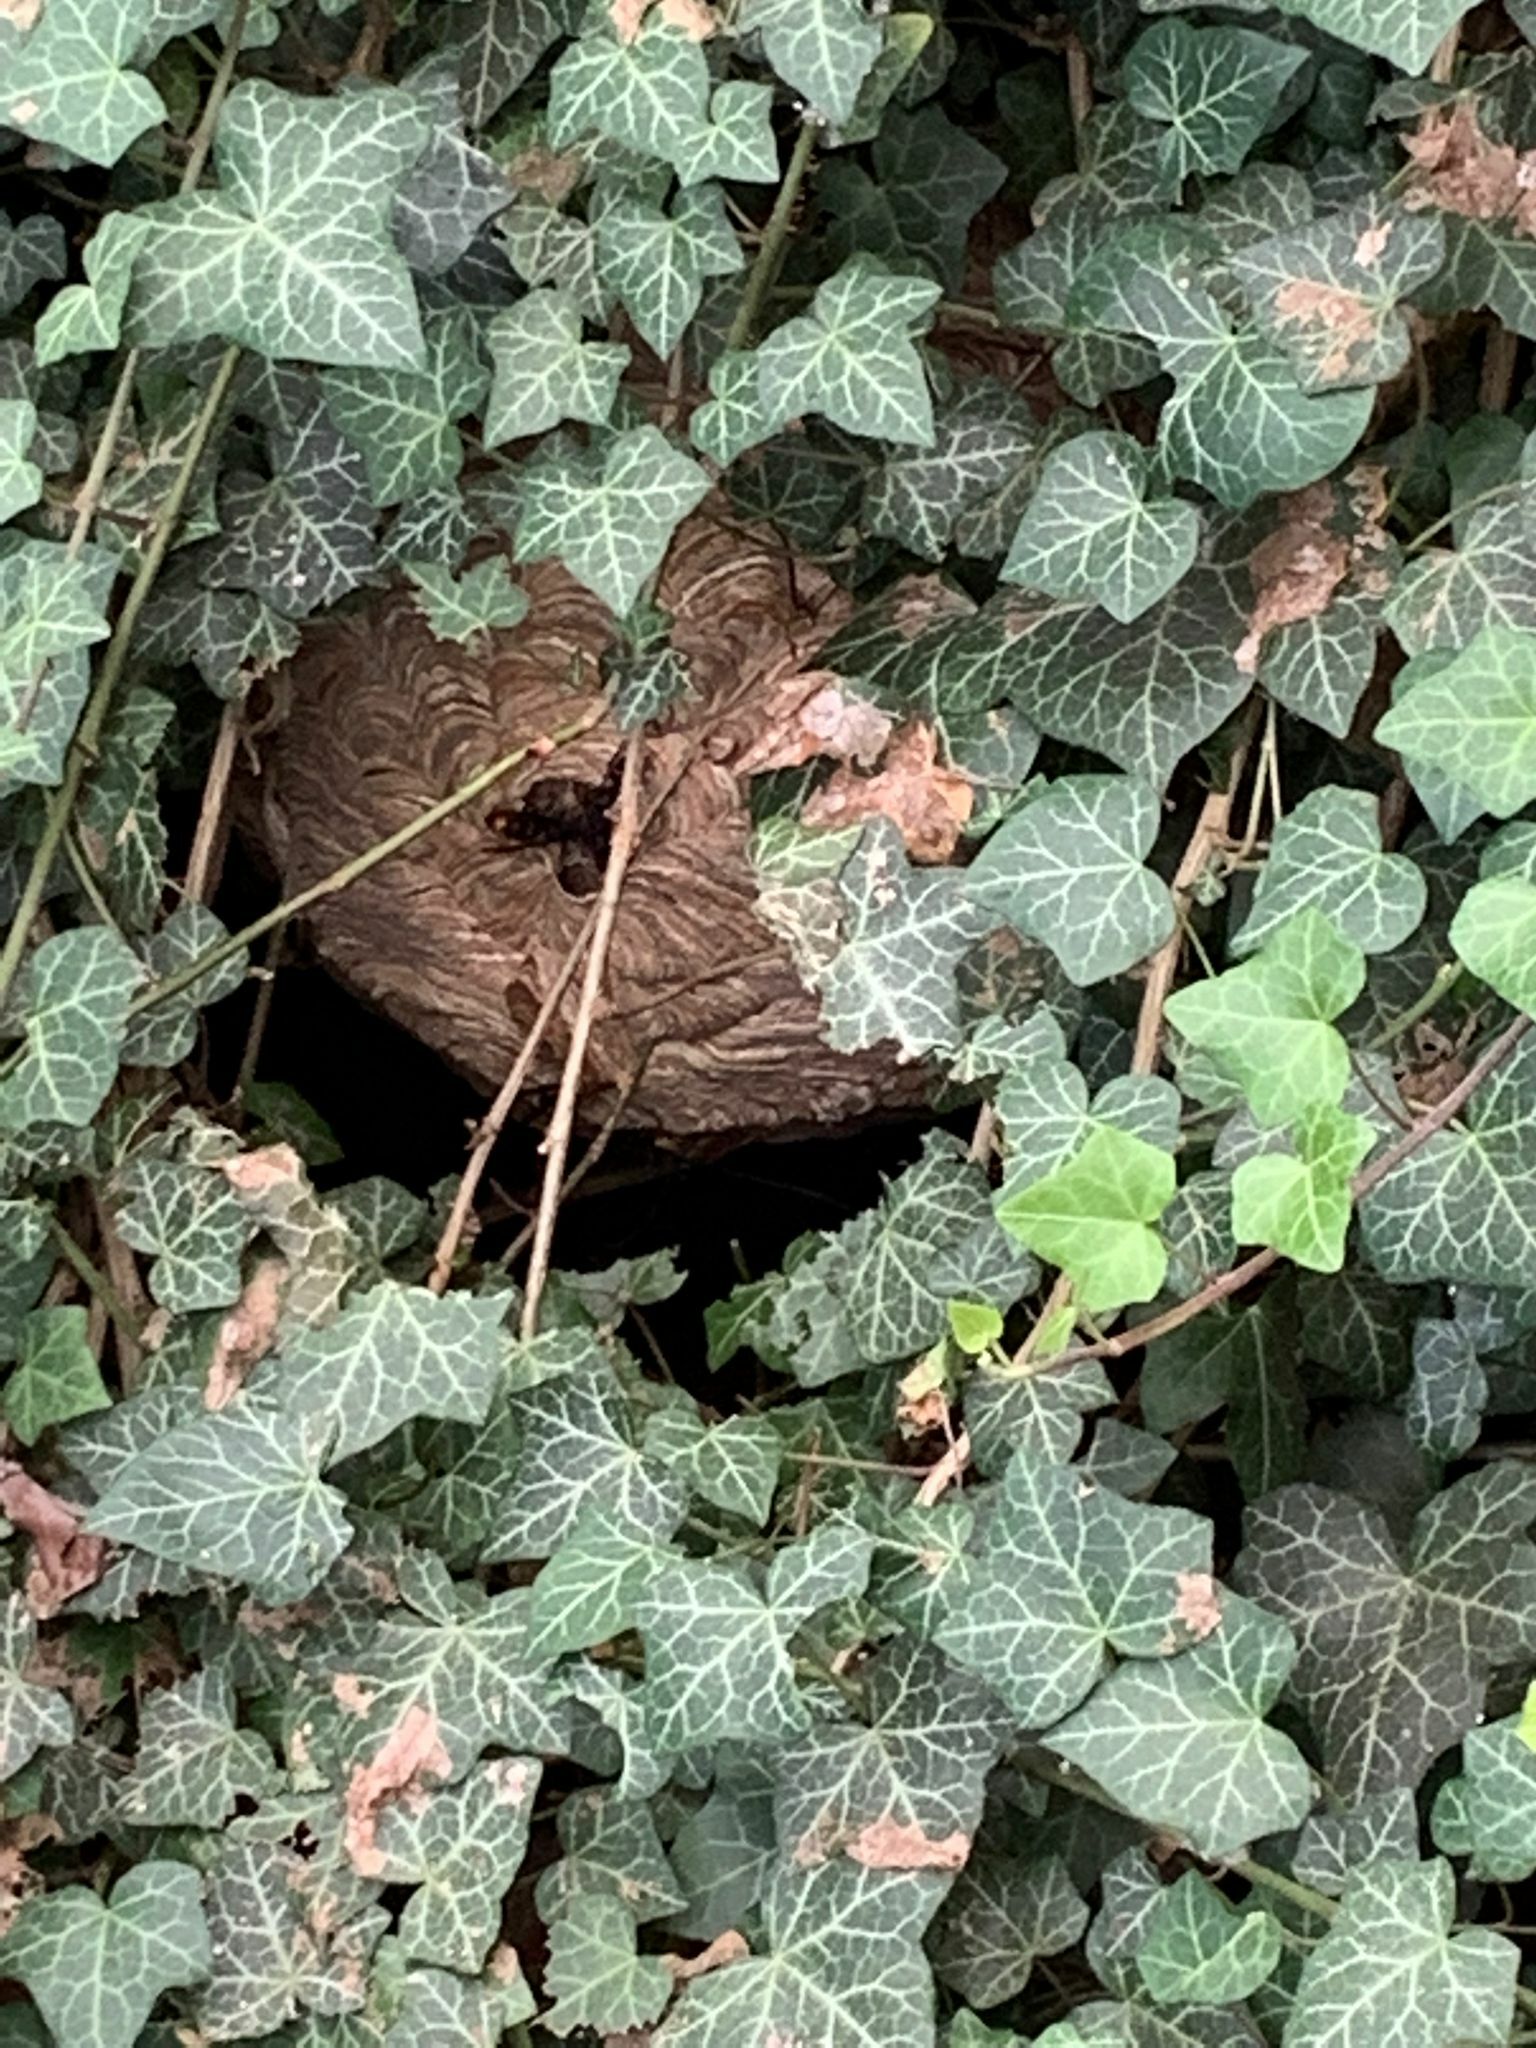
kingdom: Animalia
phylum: Arthropoda
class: Insecta
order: Hymenoptera
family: Vespidae
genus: Vespa
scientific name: Vespa velutina
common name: Asian hornet
